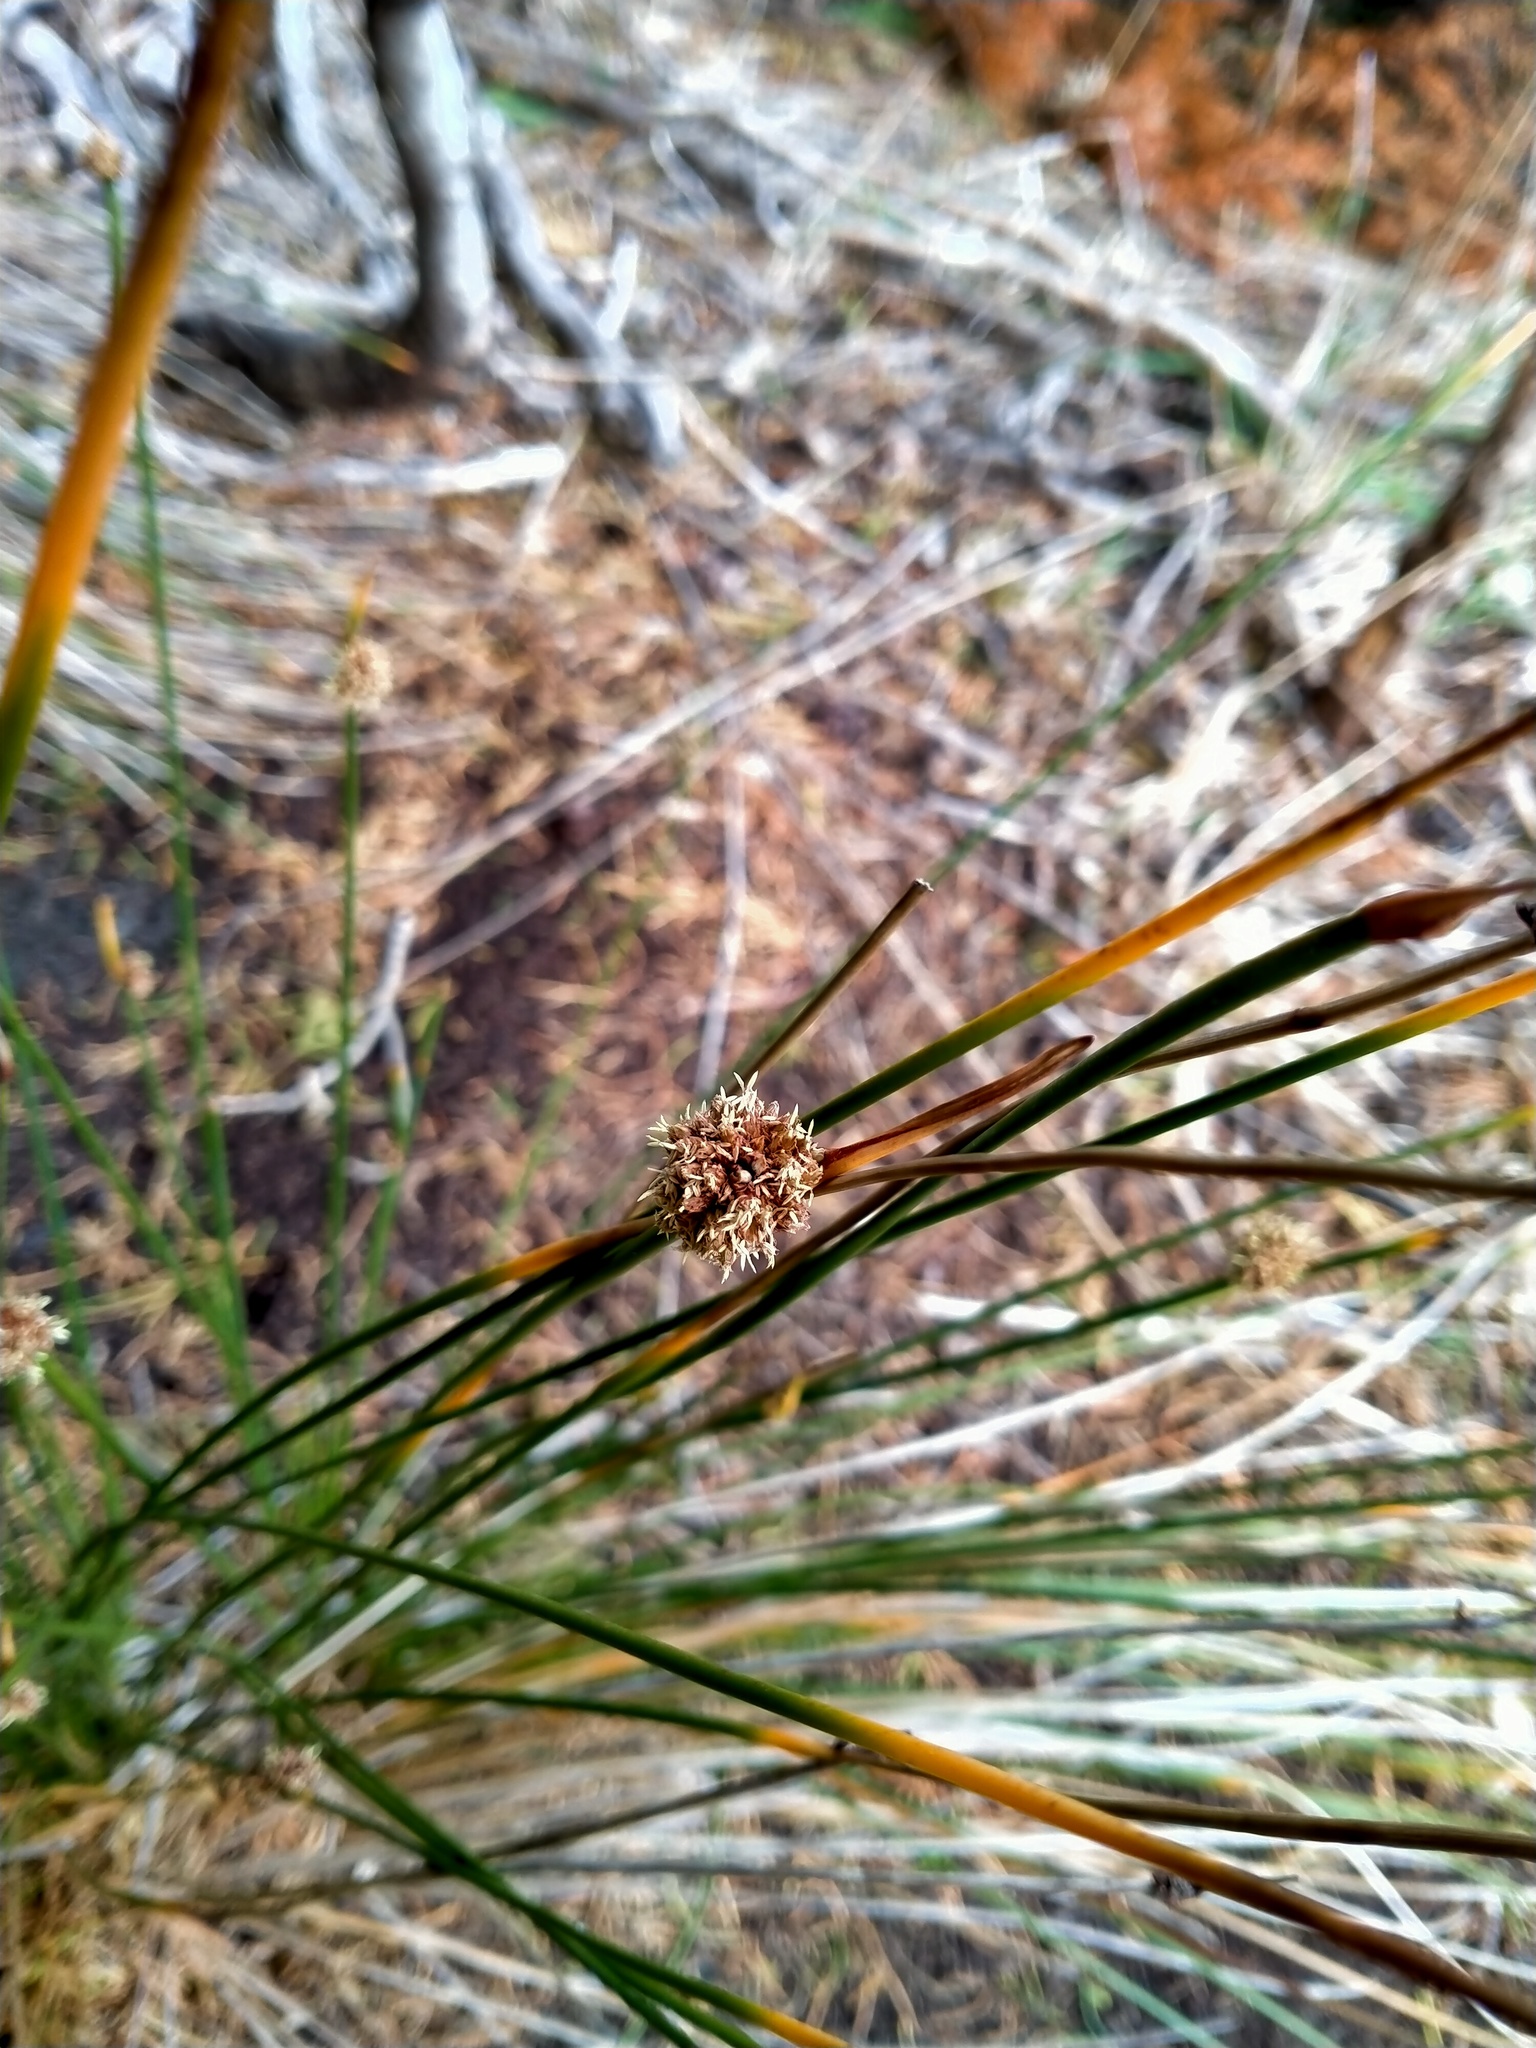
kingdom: Plantae
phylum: Tracheophyta
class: Liliopsida
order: Poales
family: Cyperaceae
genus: Ficinia
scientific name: Ficinia nodosa
